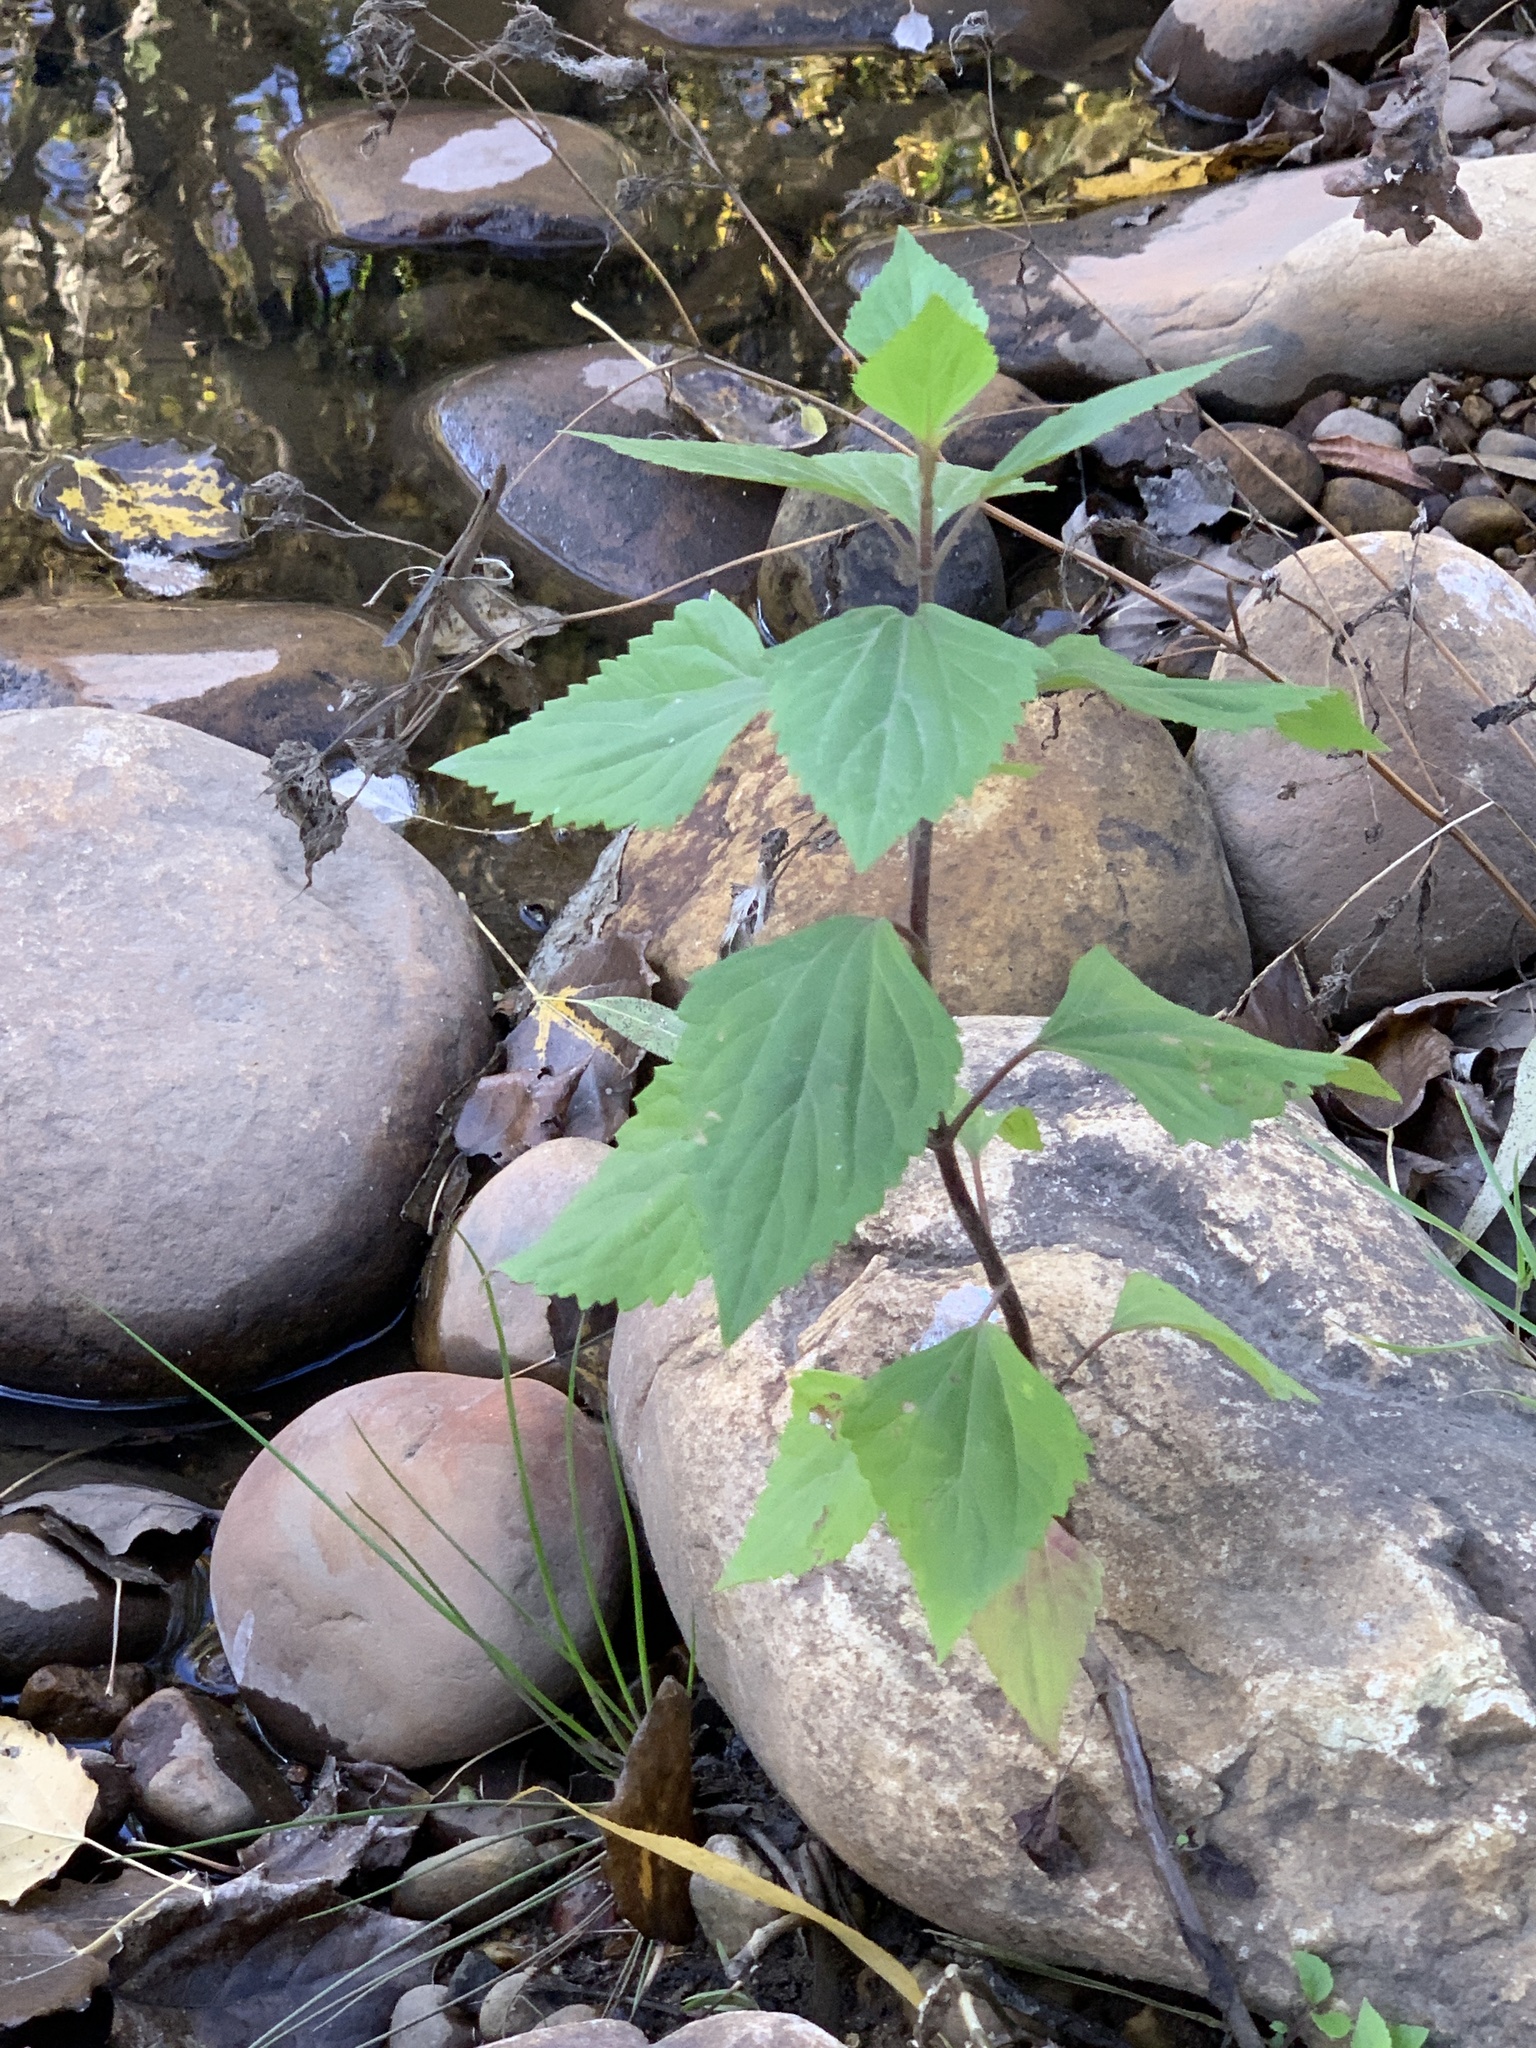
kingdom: Plantae
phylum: Tracheophyta
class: Magnoliopsida
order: Asterales
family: Asteraceae
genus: Ageratina
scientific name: Ageratina adenophora
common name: Sticky snakeroot
